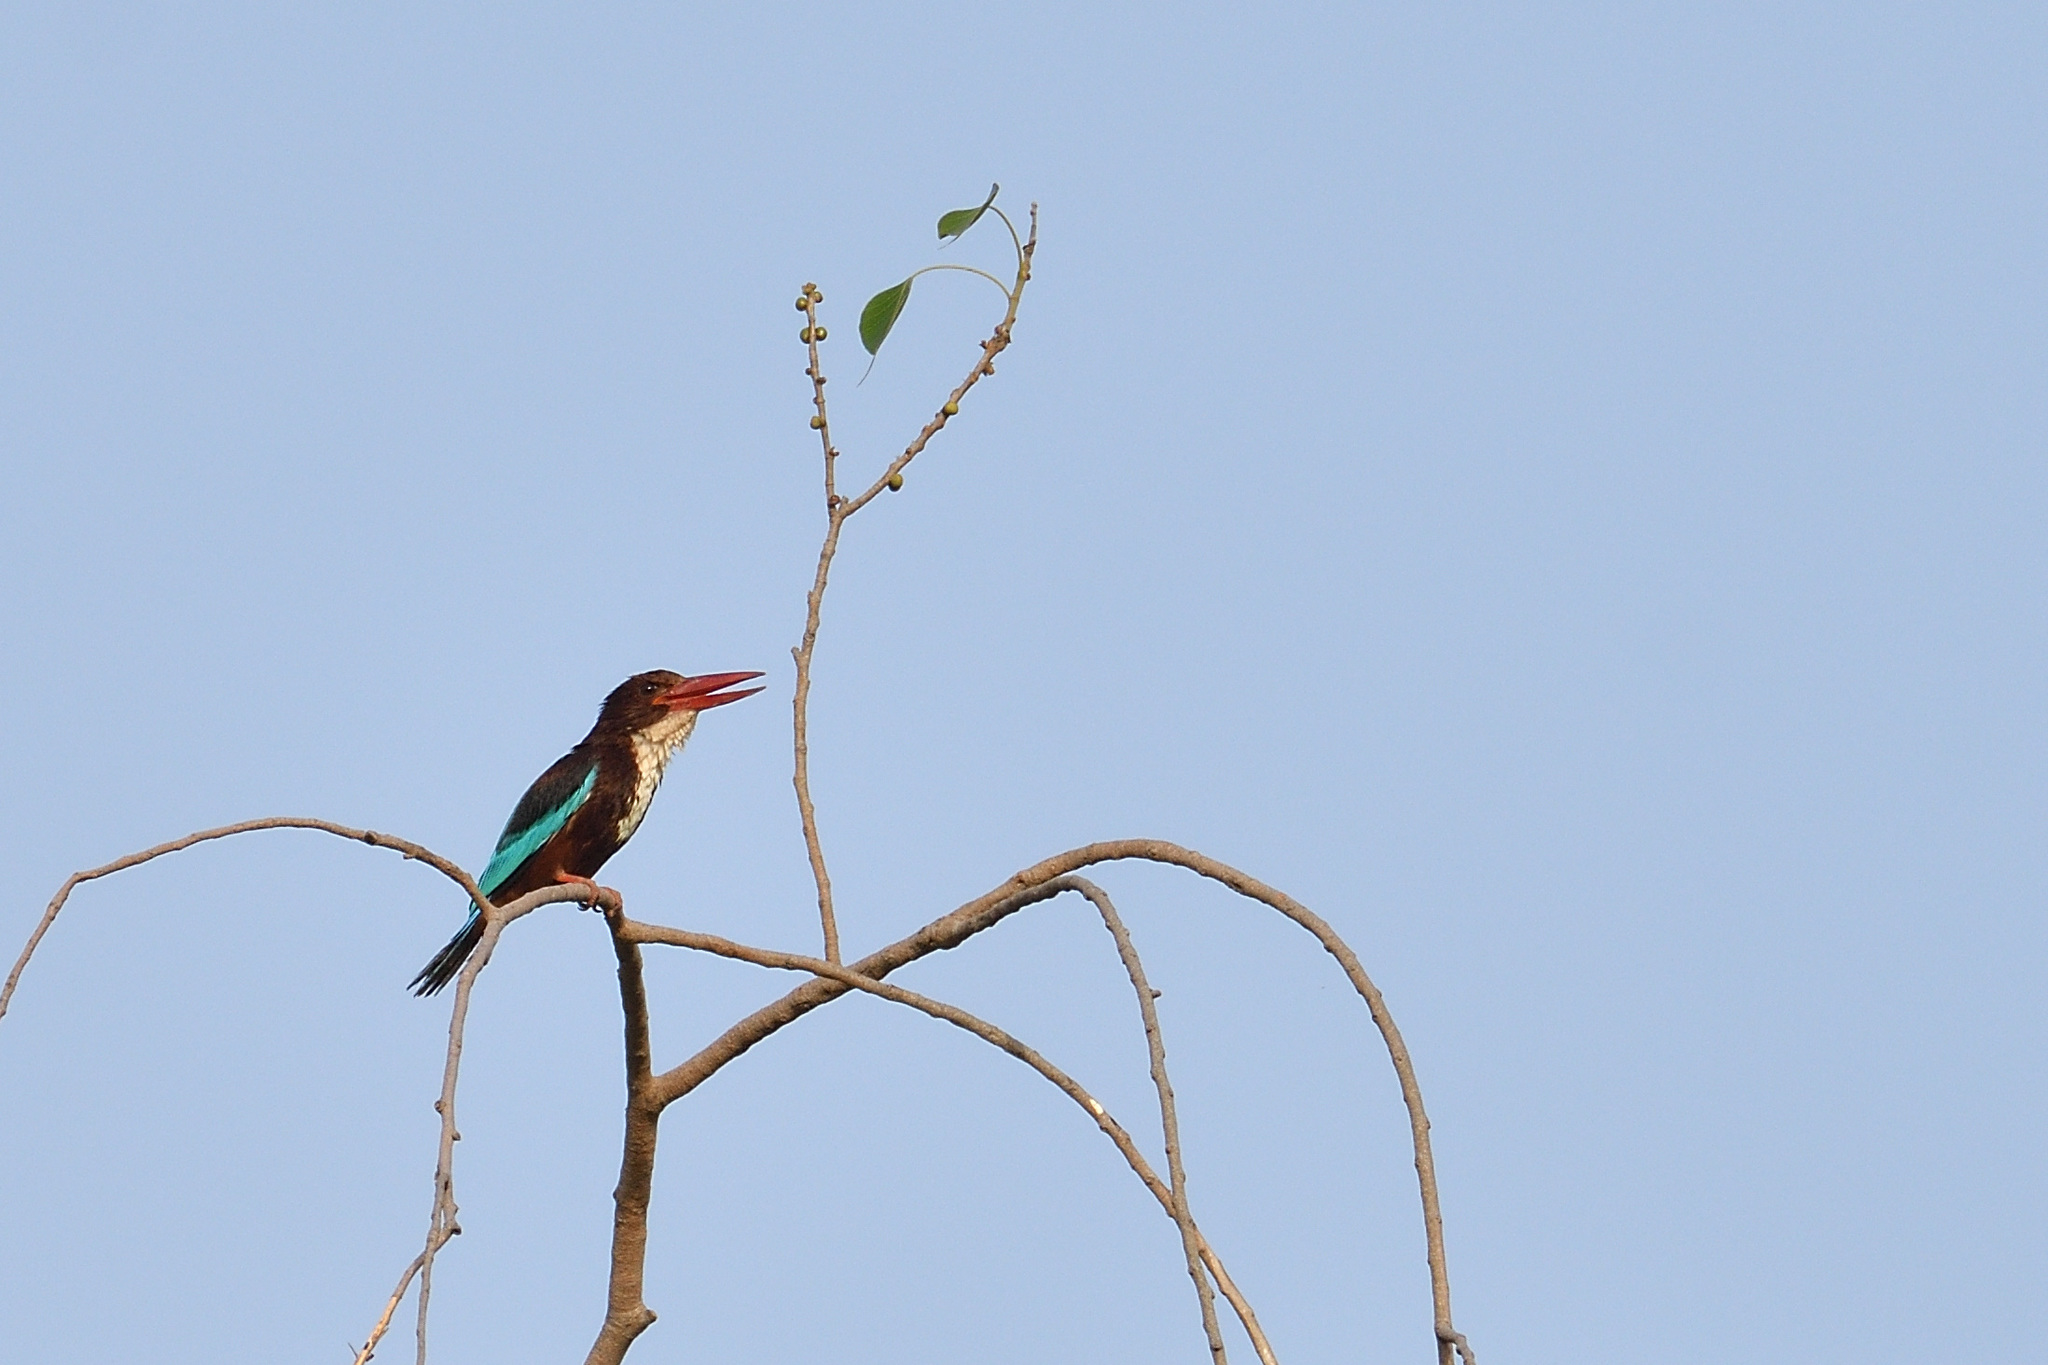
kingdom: Animalia
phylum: Chordata
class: Aves
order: Coraciiformes
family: Alcedinidae
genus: Halcyon
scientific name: Halcyon smyrnensis
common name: White-throated kingfisher
